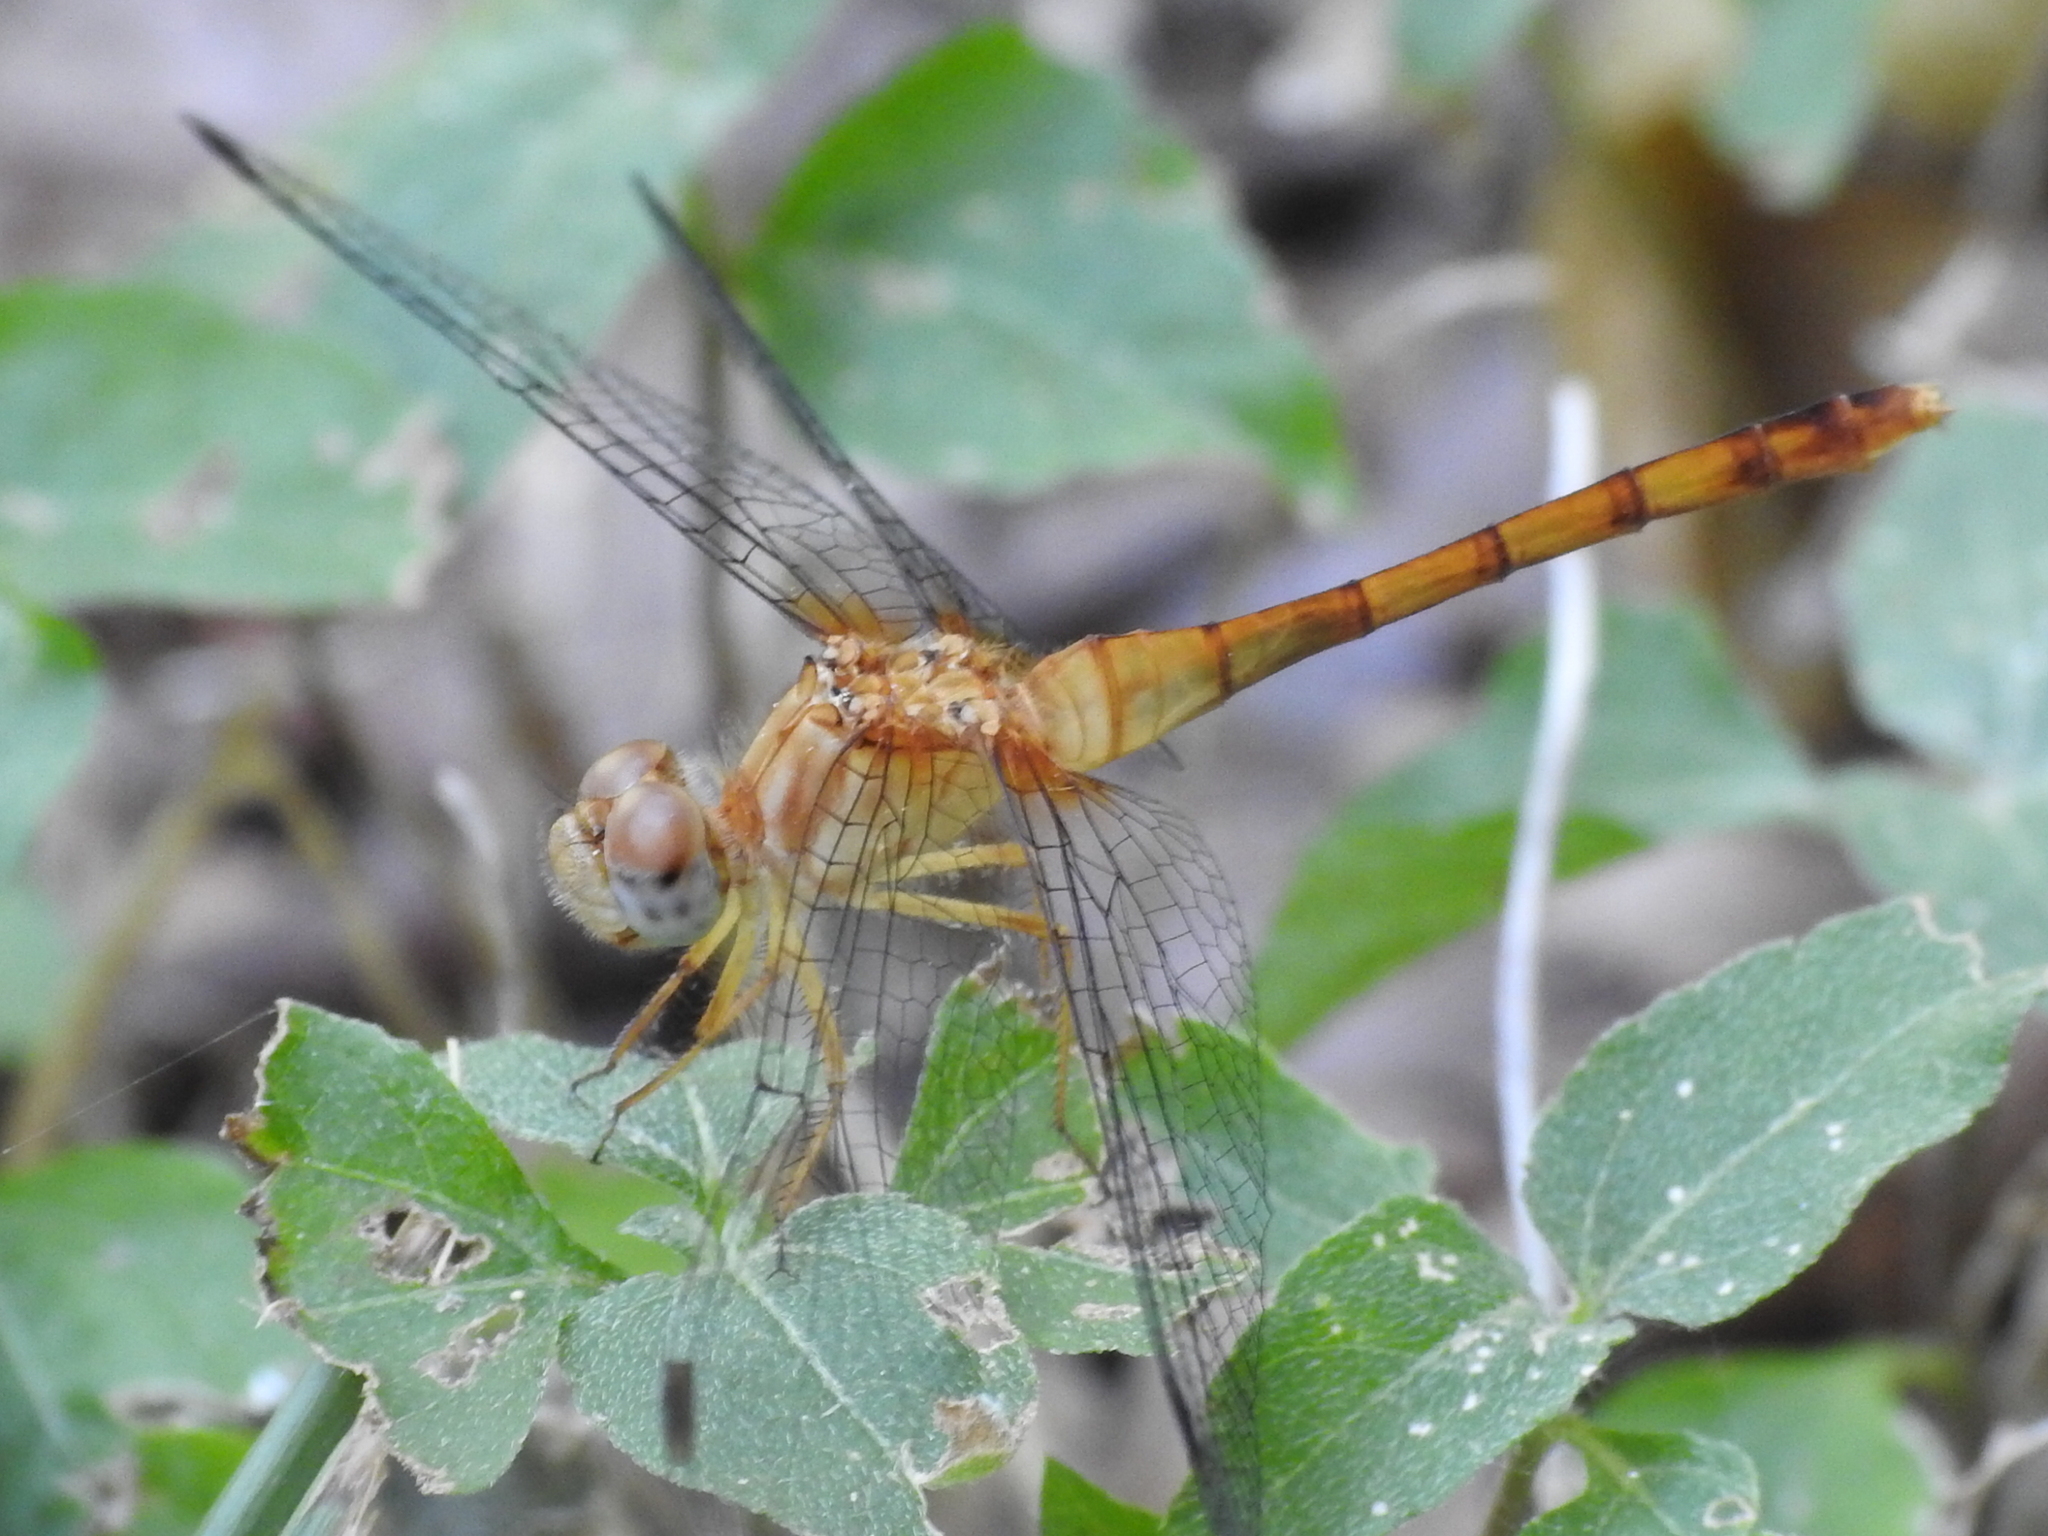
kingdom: Animalia
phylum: Arthropoda
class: Insecta
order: Odonata
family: Libellulidae
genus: Sympetrum
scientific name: Sympetrum vicinum
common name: Autumn meadowhawk
